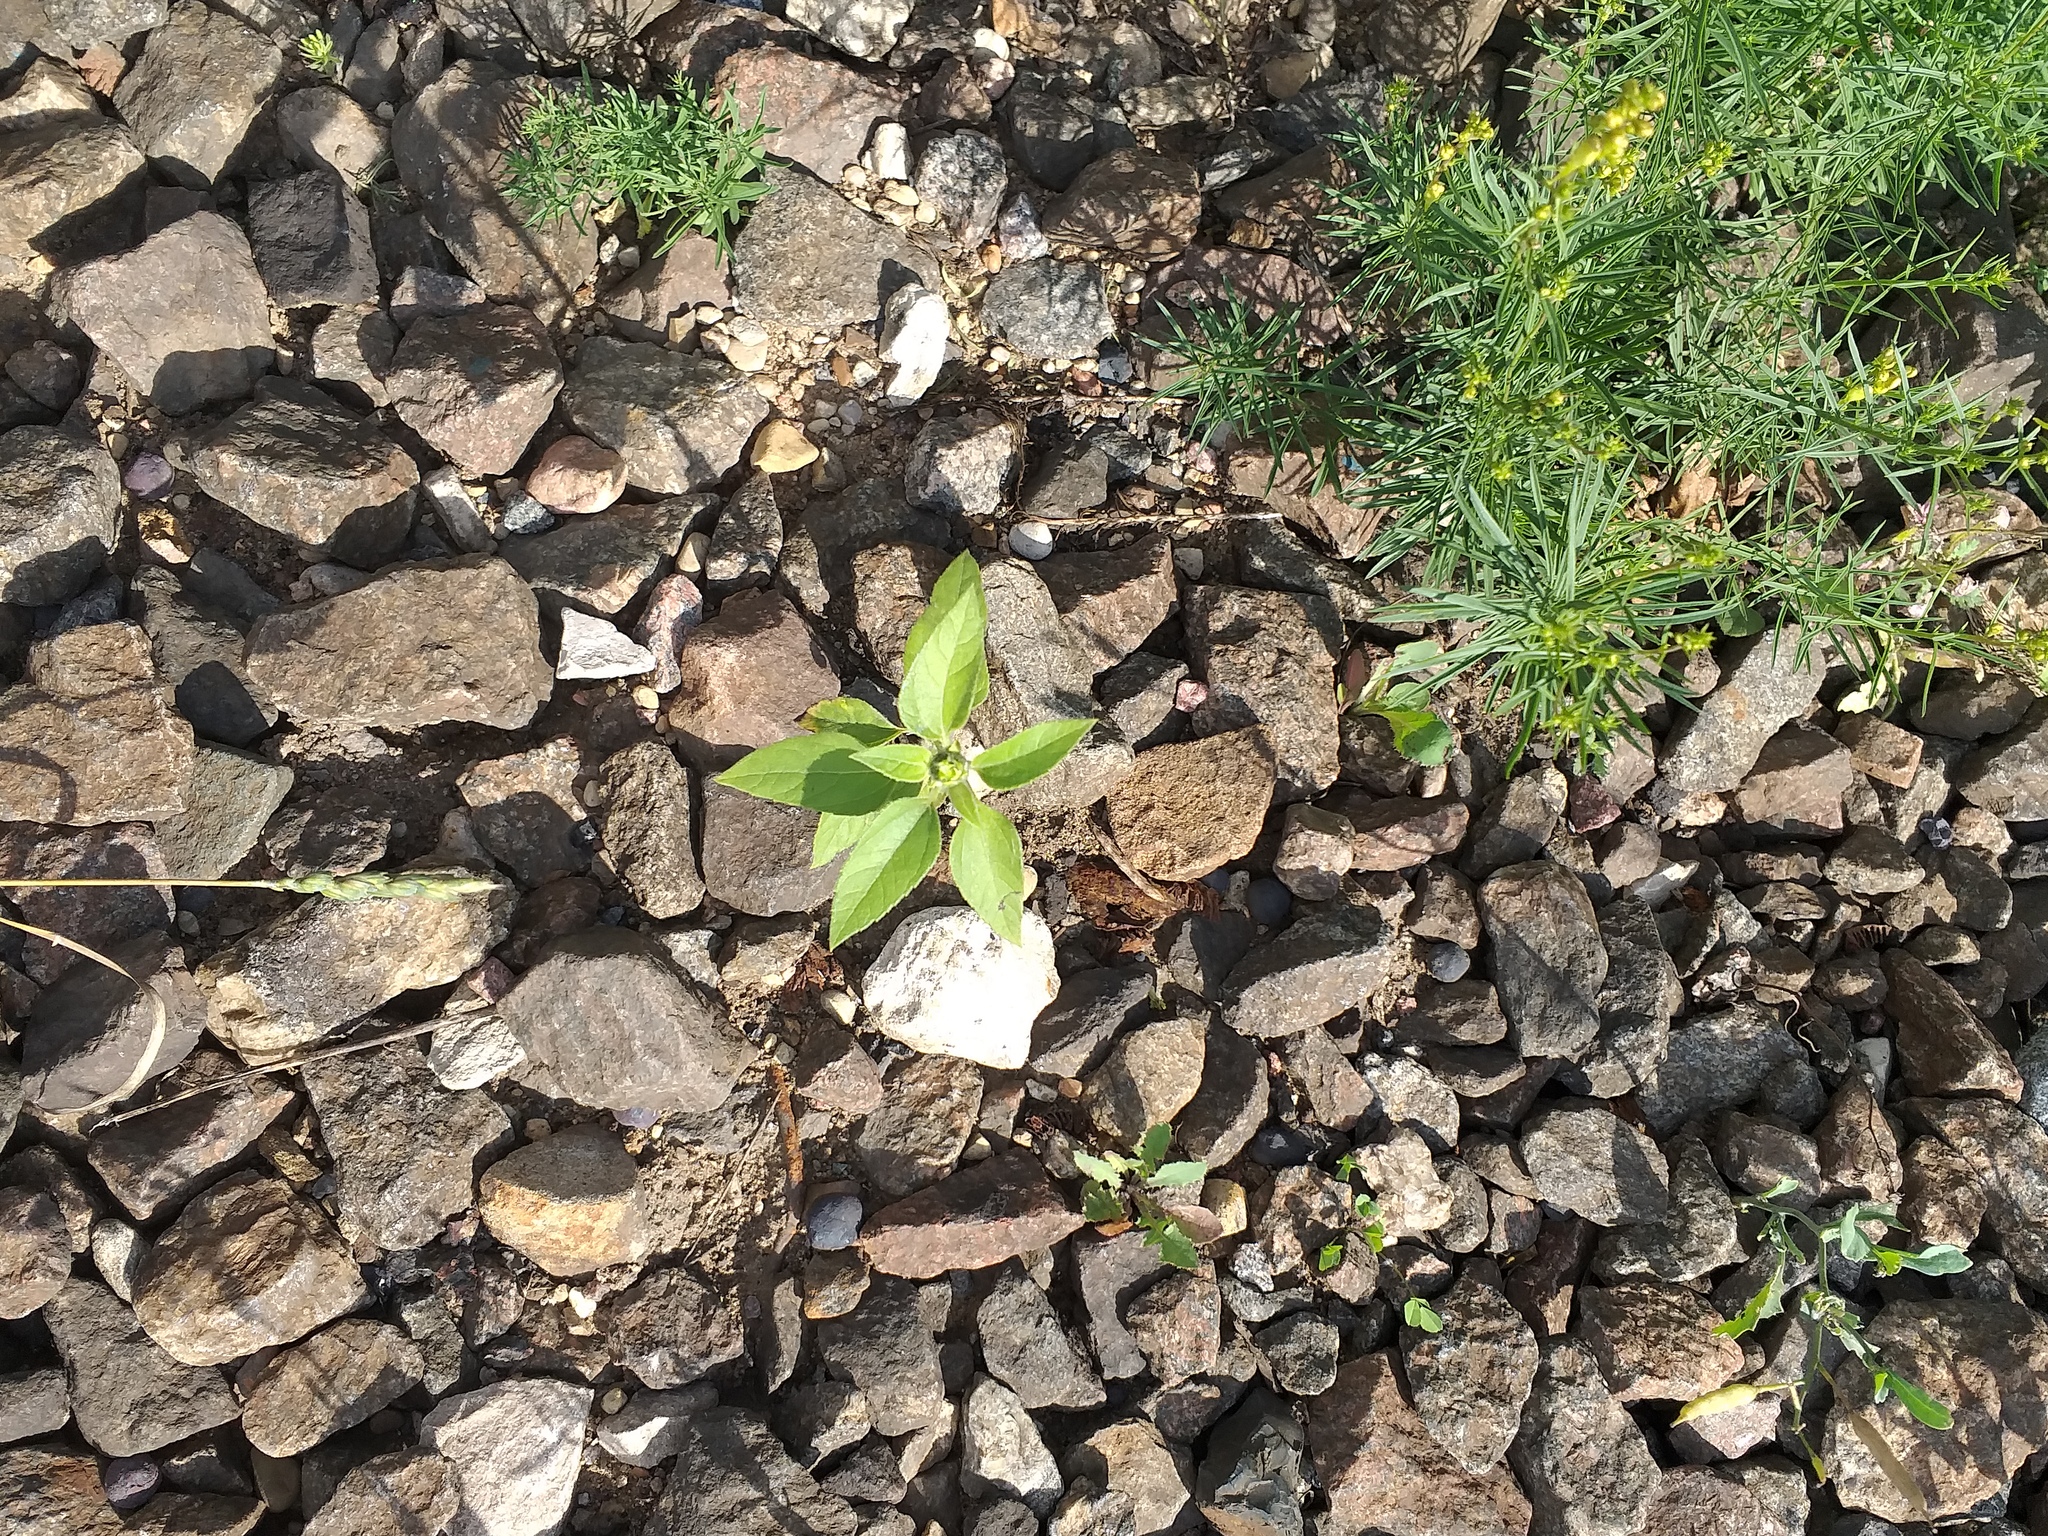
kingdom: Plantae
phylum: Tracheophyta
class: Magnoliopsida
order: Asterales
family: Asteraceae
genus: Helianthus
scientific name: Helianthus annuus
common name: Sunflower
